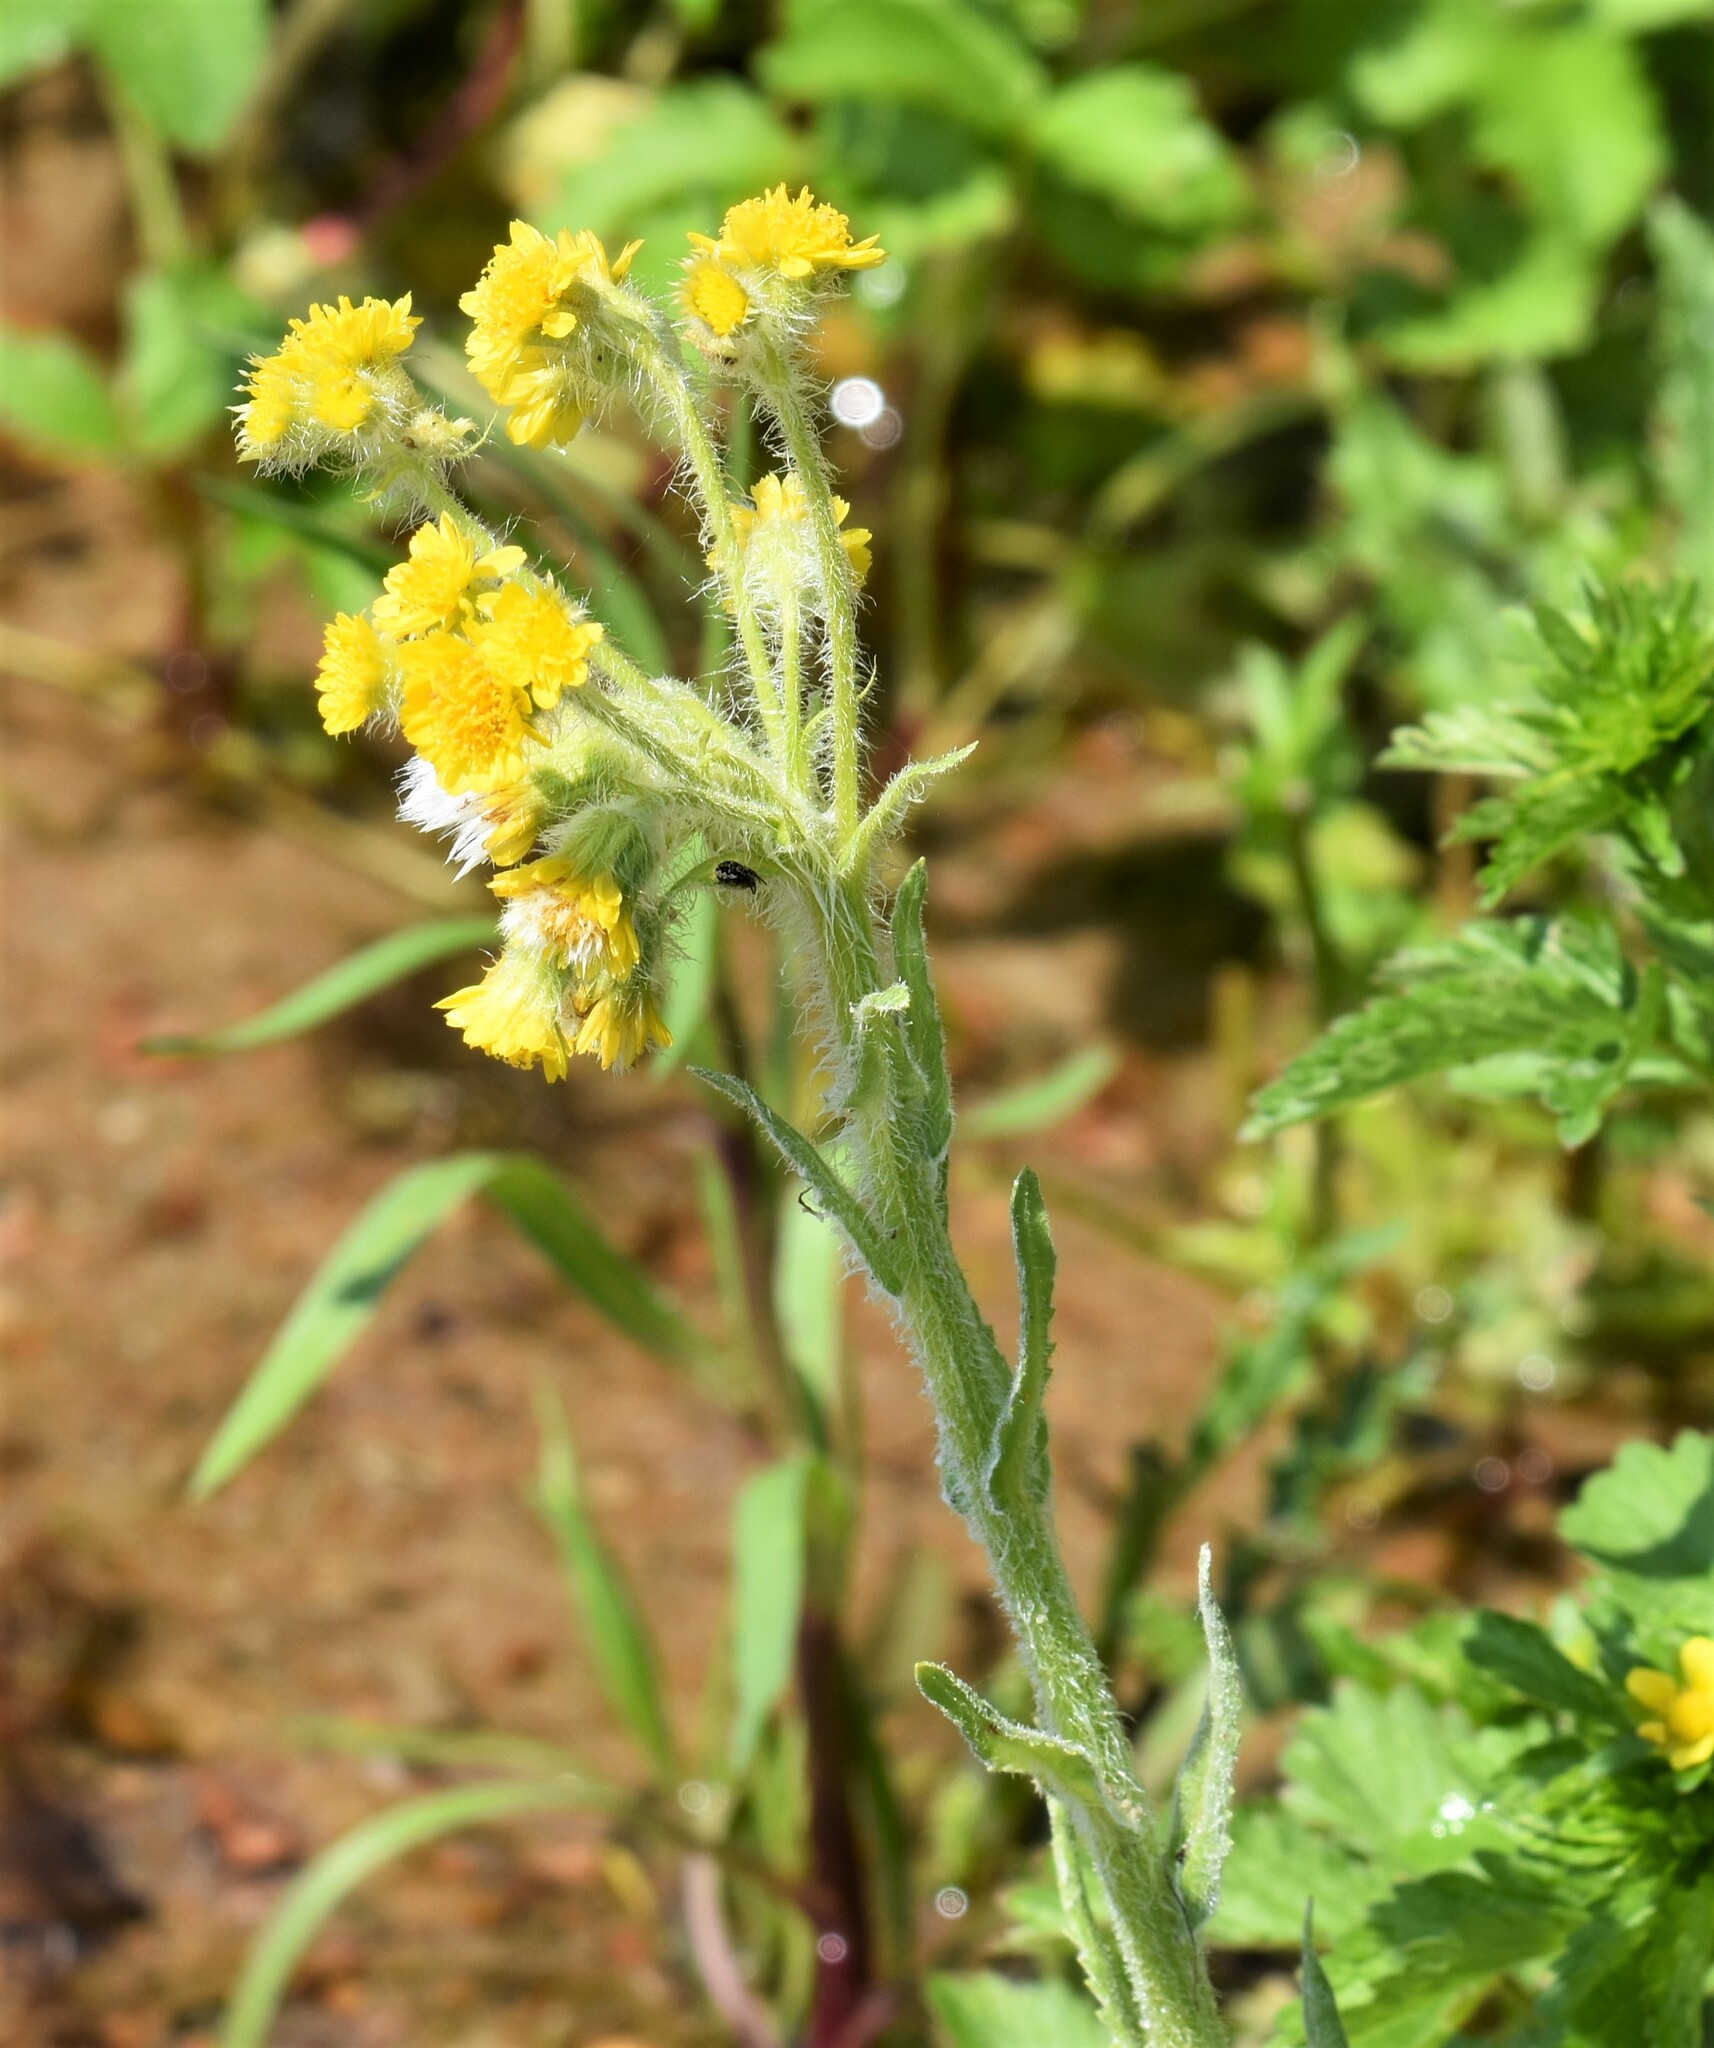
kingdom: Plantae
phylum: Tracheophyta
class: Magnoliopsida
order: Asterales
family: Asteraceae
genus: Tephroseris
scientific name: Tephroseris palustris
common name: Marsh fleawort
